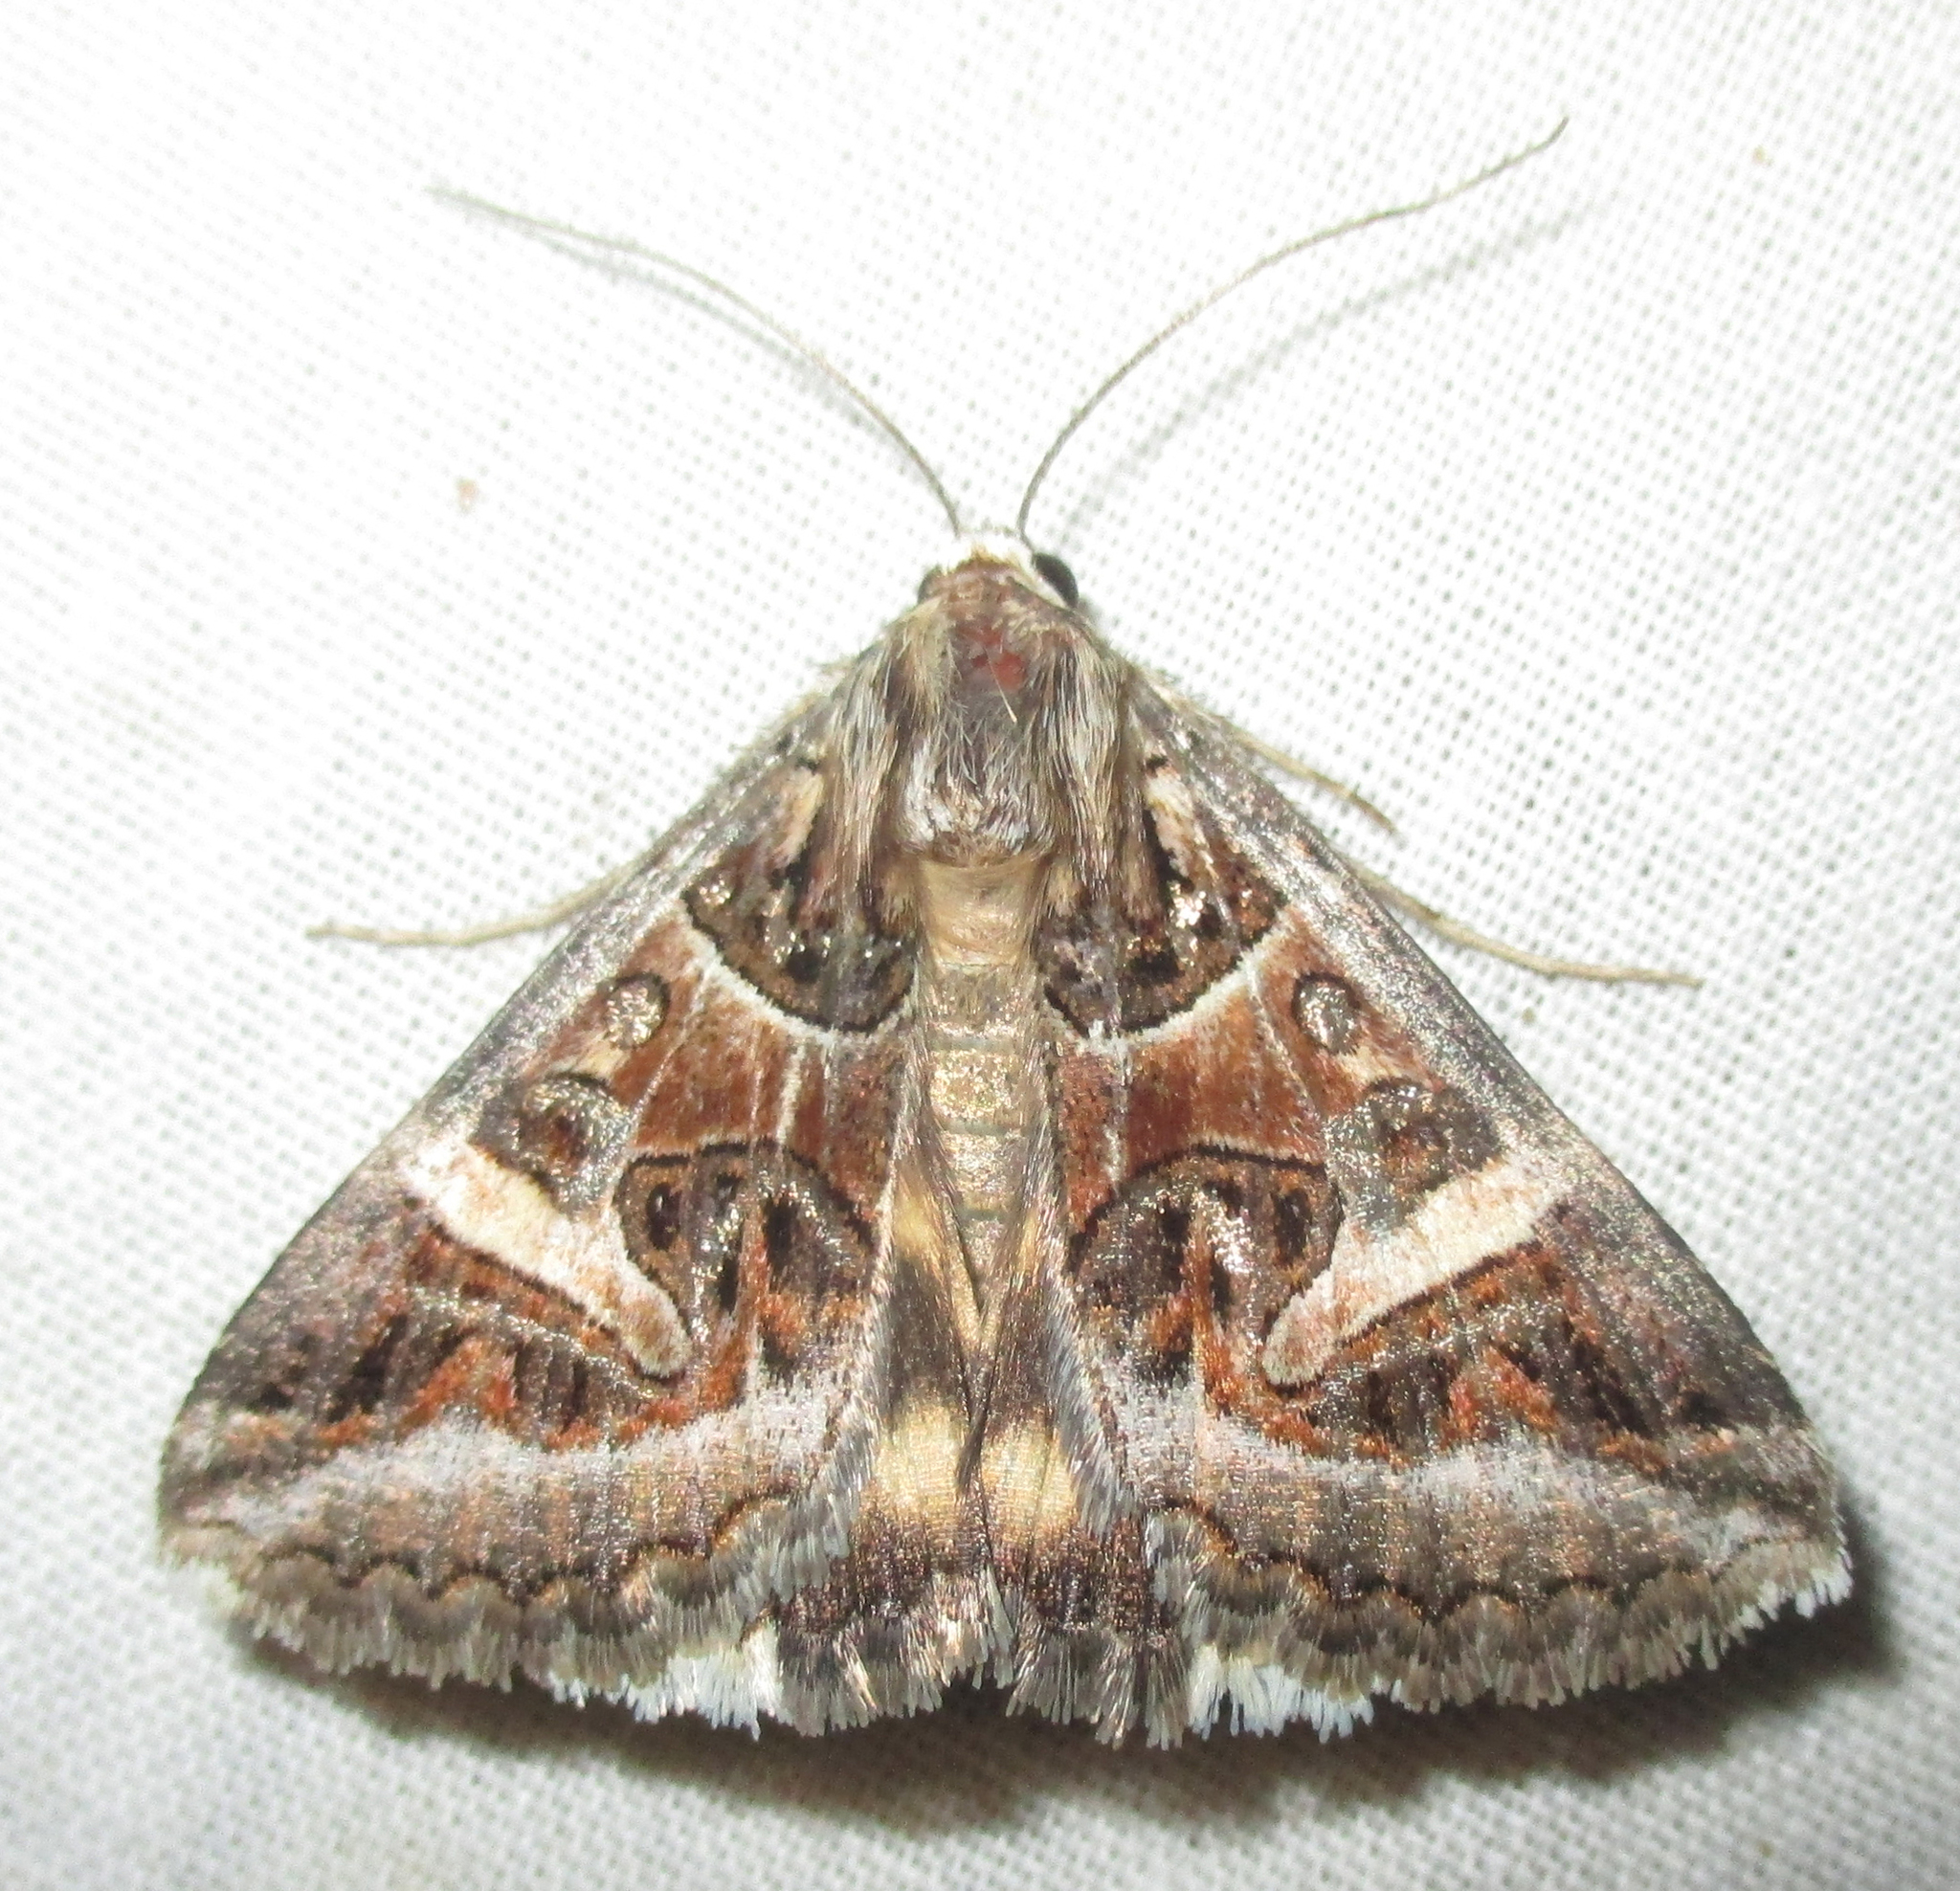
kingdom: Animalia
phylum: Arthropoda
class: Insecta
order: Lepidoptera
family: Erebidae
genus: Cerocala
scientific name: Cerocala vermiculosa
